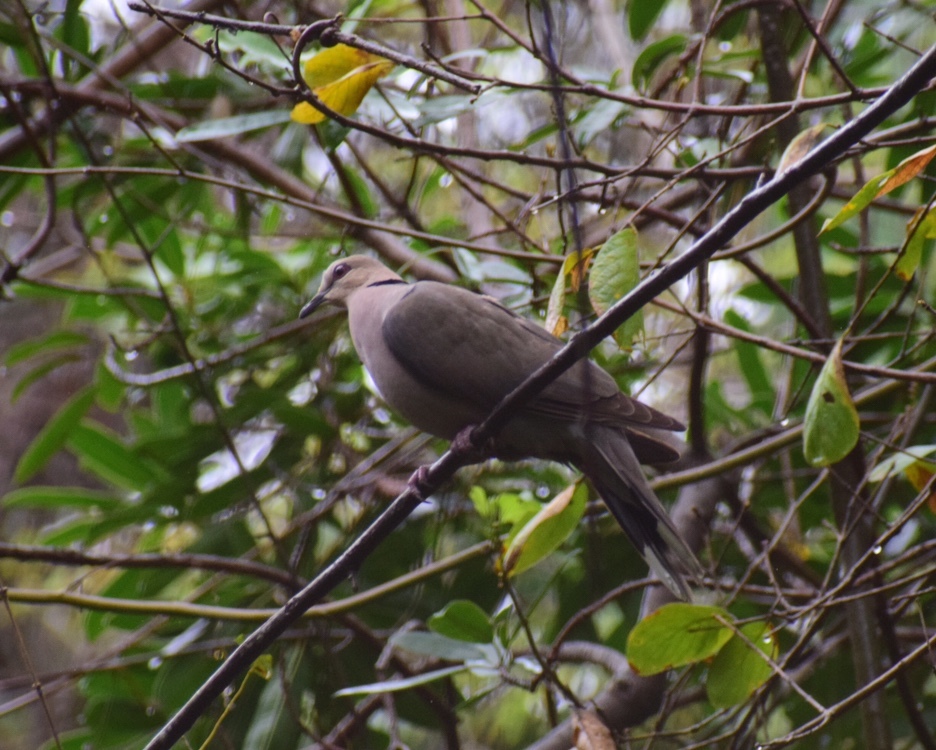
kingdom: Animalia
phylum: Chordata
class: Aves
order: Columbiformes
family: Columbidae
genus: Streptopelia
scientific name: Streptopelia semitorquata
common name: Red-eyed dove
